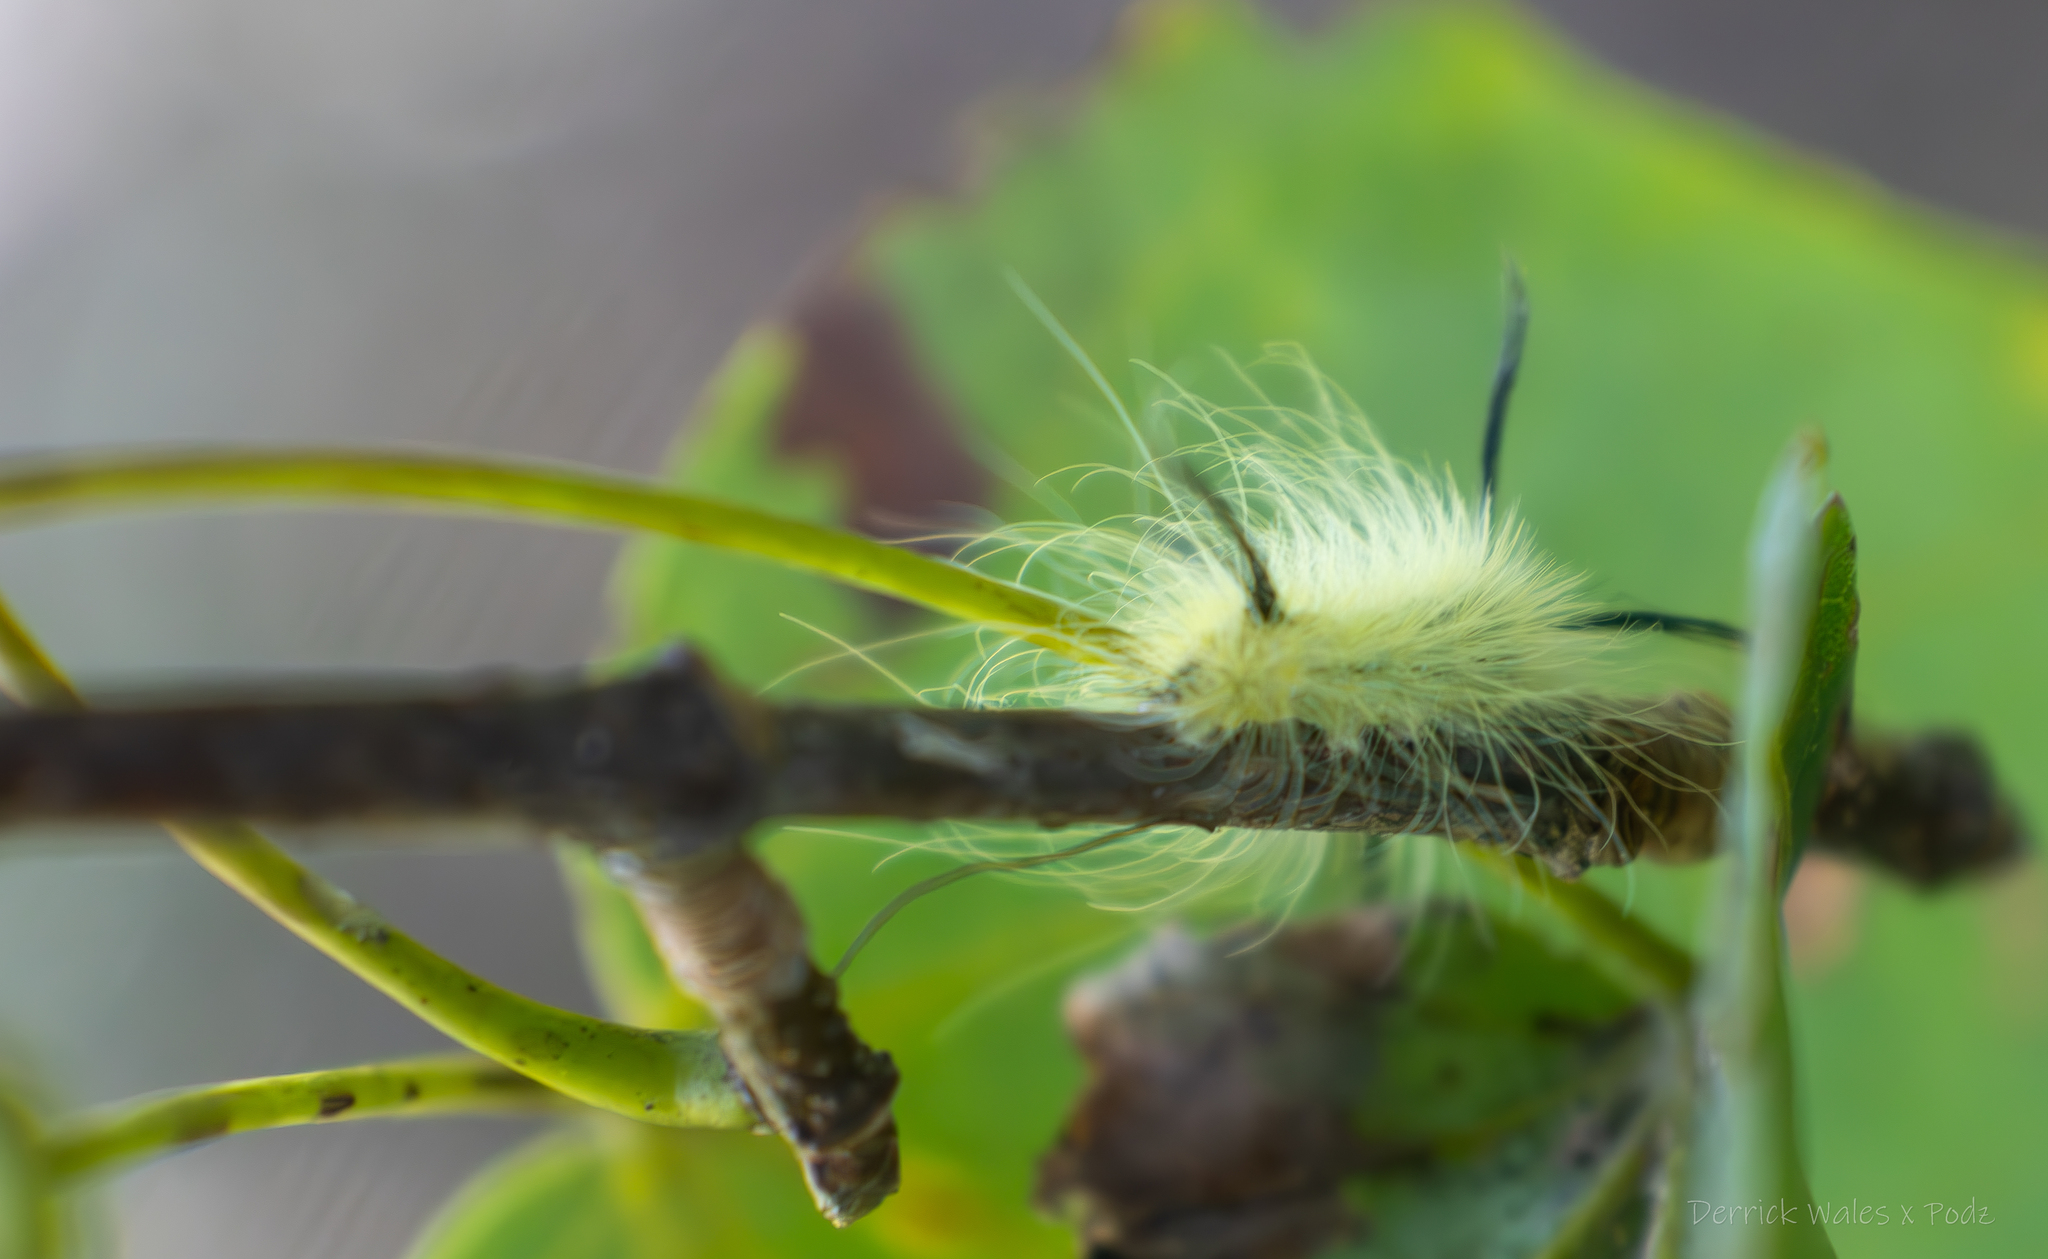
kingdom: Animalia
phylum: Arthropoda
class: Insecta
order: Lepidoptera
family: Noctuidae
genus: Acronicta
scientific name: Acronicta americana
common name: American dagger
